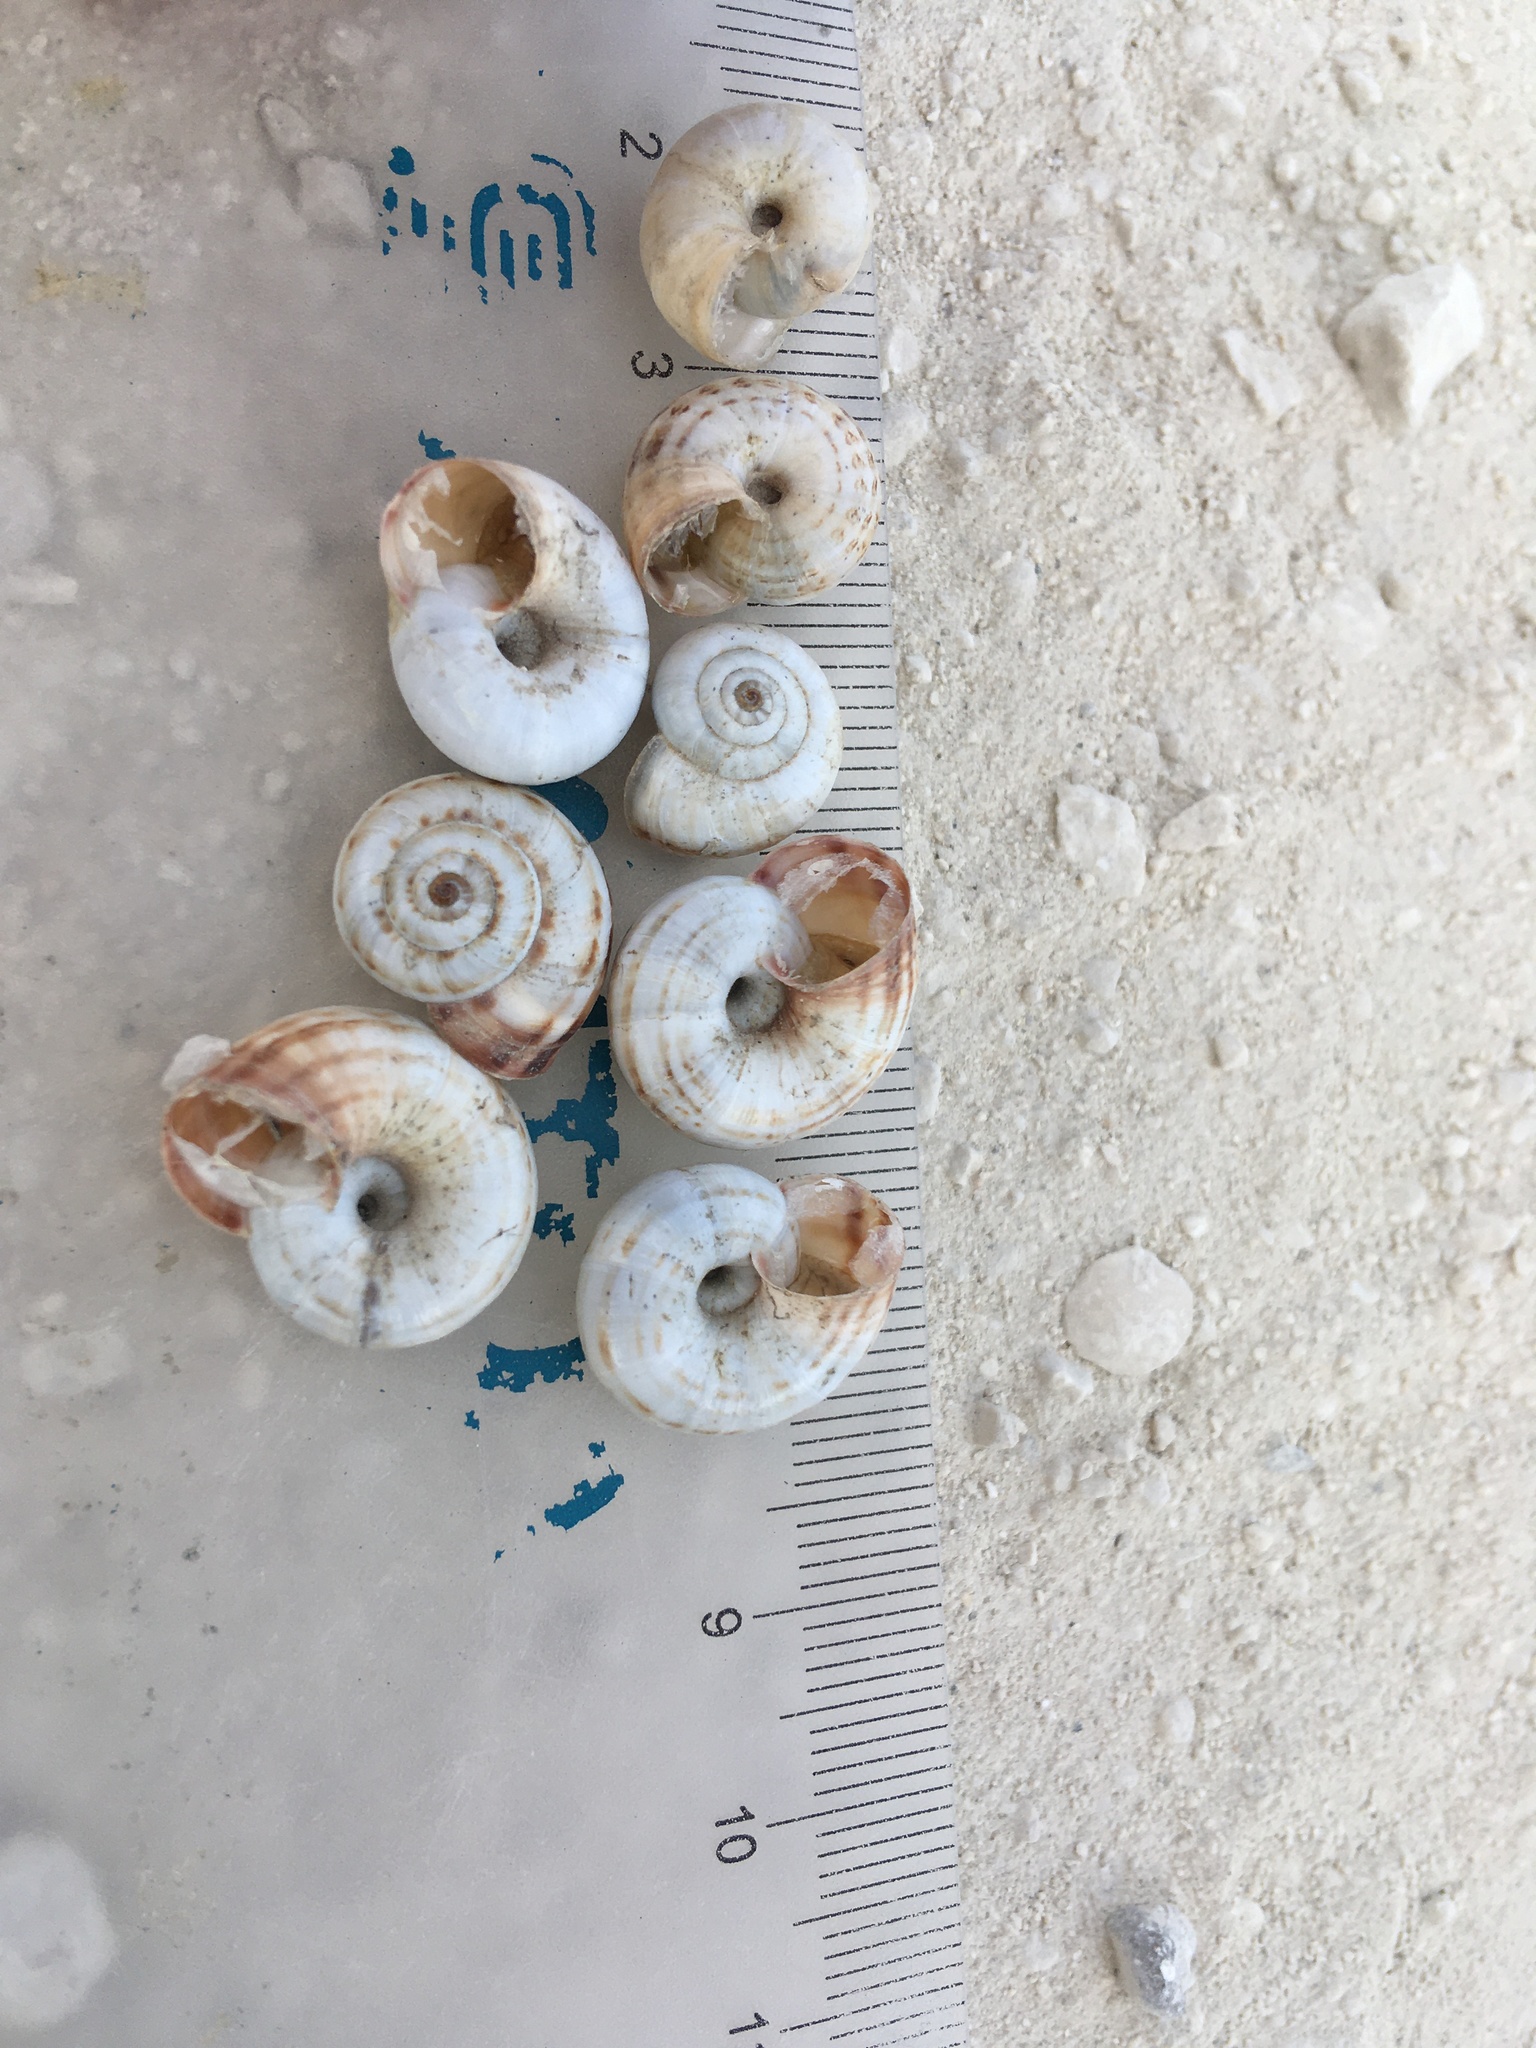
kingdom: Animalia
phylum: Mollusca
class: Gastropoda
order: Stylommatophora
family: Geomitridae
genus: Xeropicta
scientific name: Xeropicta derbentina
